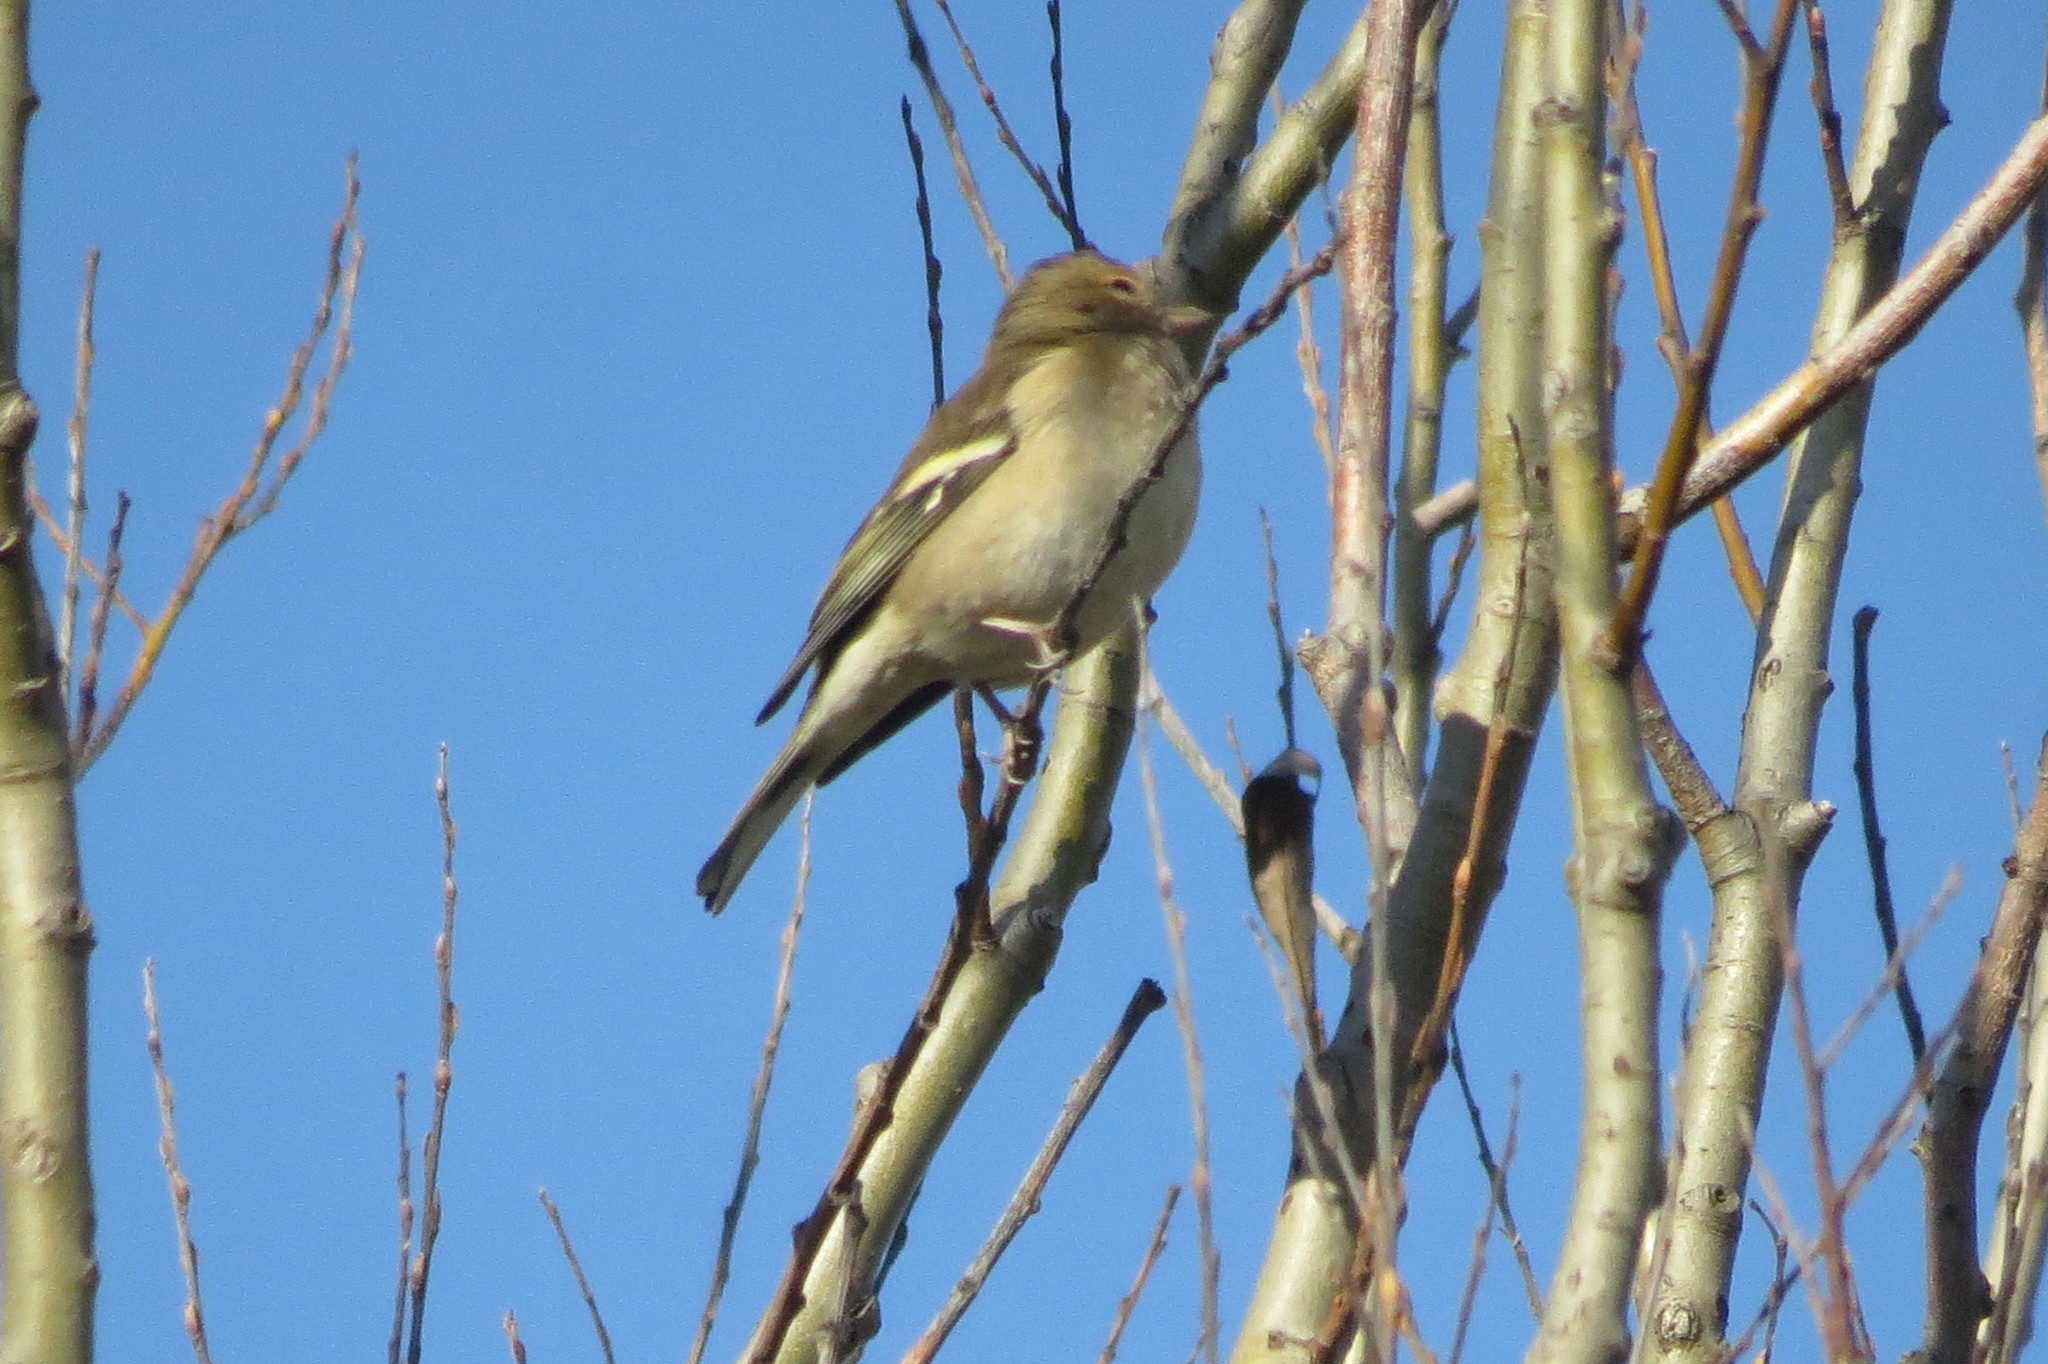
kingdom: Animalia
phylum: Chordata
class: Aves
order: Passeriformes
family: Fringillidae
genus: Fringilla
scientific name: Fringilla coelebs
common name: Common chaffinch
